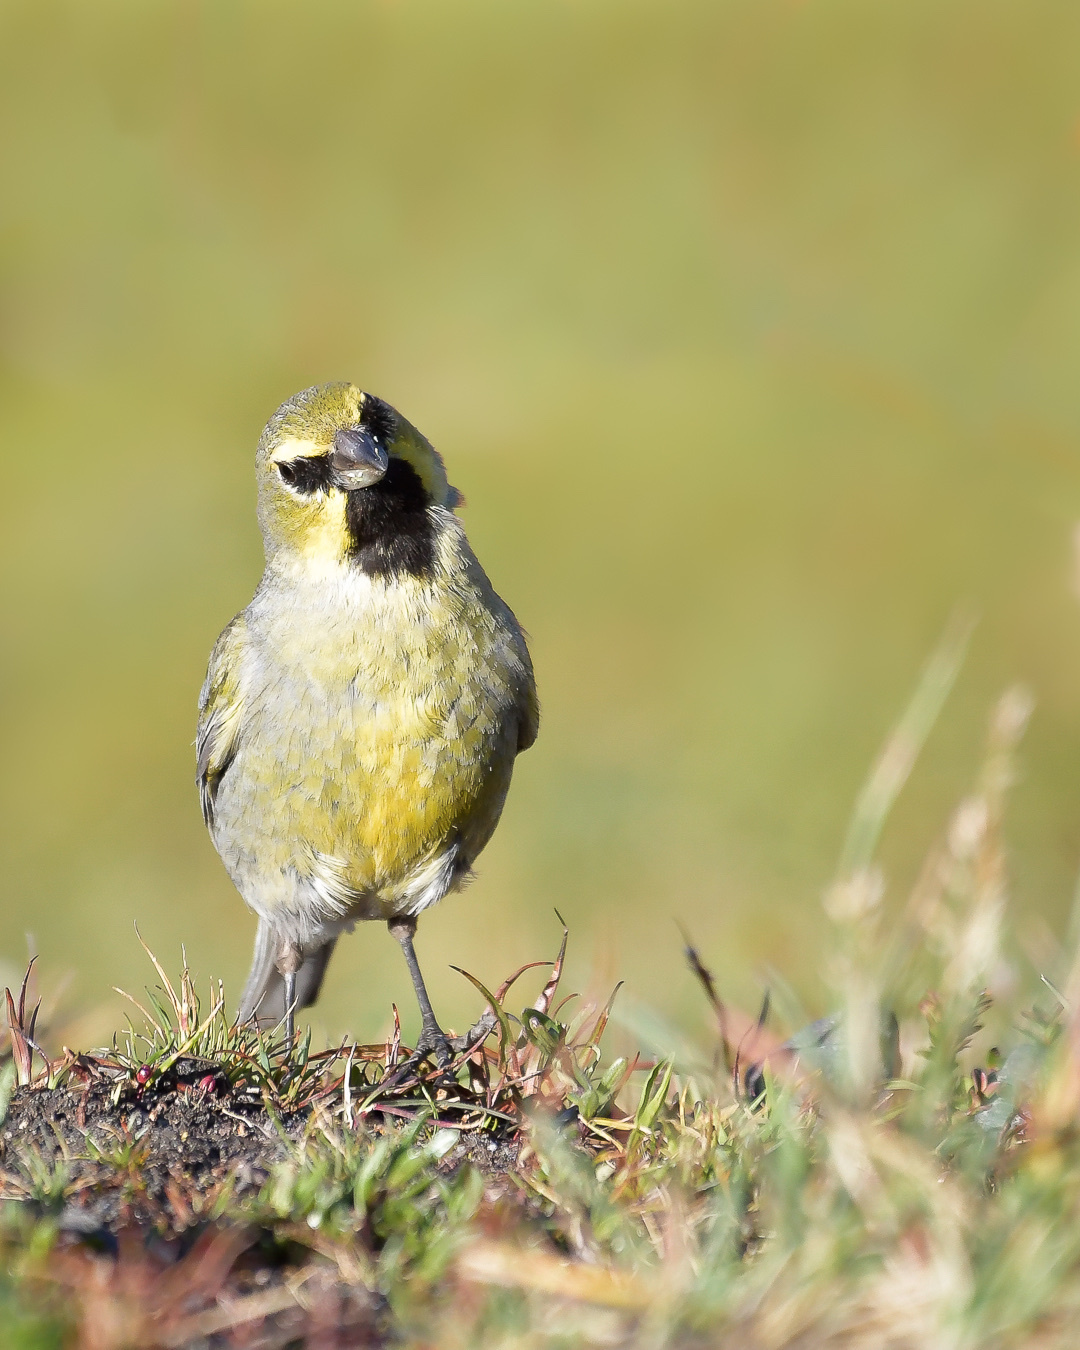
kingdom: Animalia
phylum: Chordata
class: Aves
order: Passeriformes
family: Thraupidae
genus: Melanodera
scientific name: Melanodera xanthogramma
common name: Yellow-bridled finch
